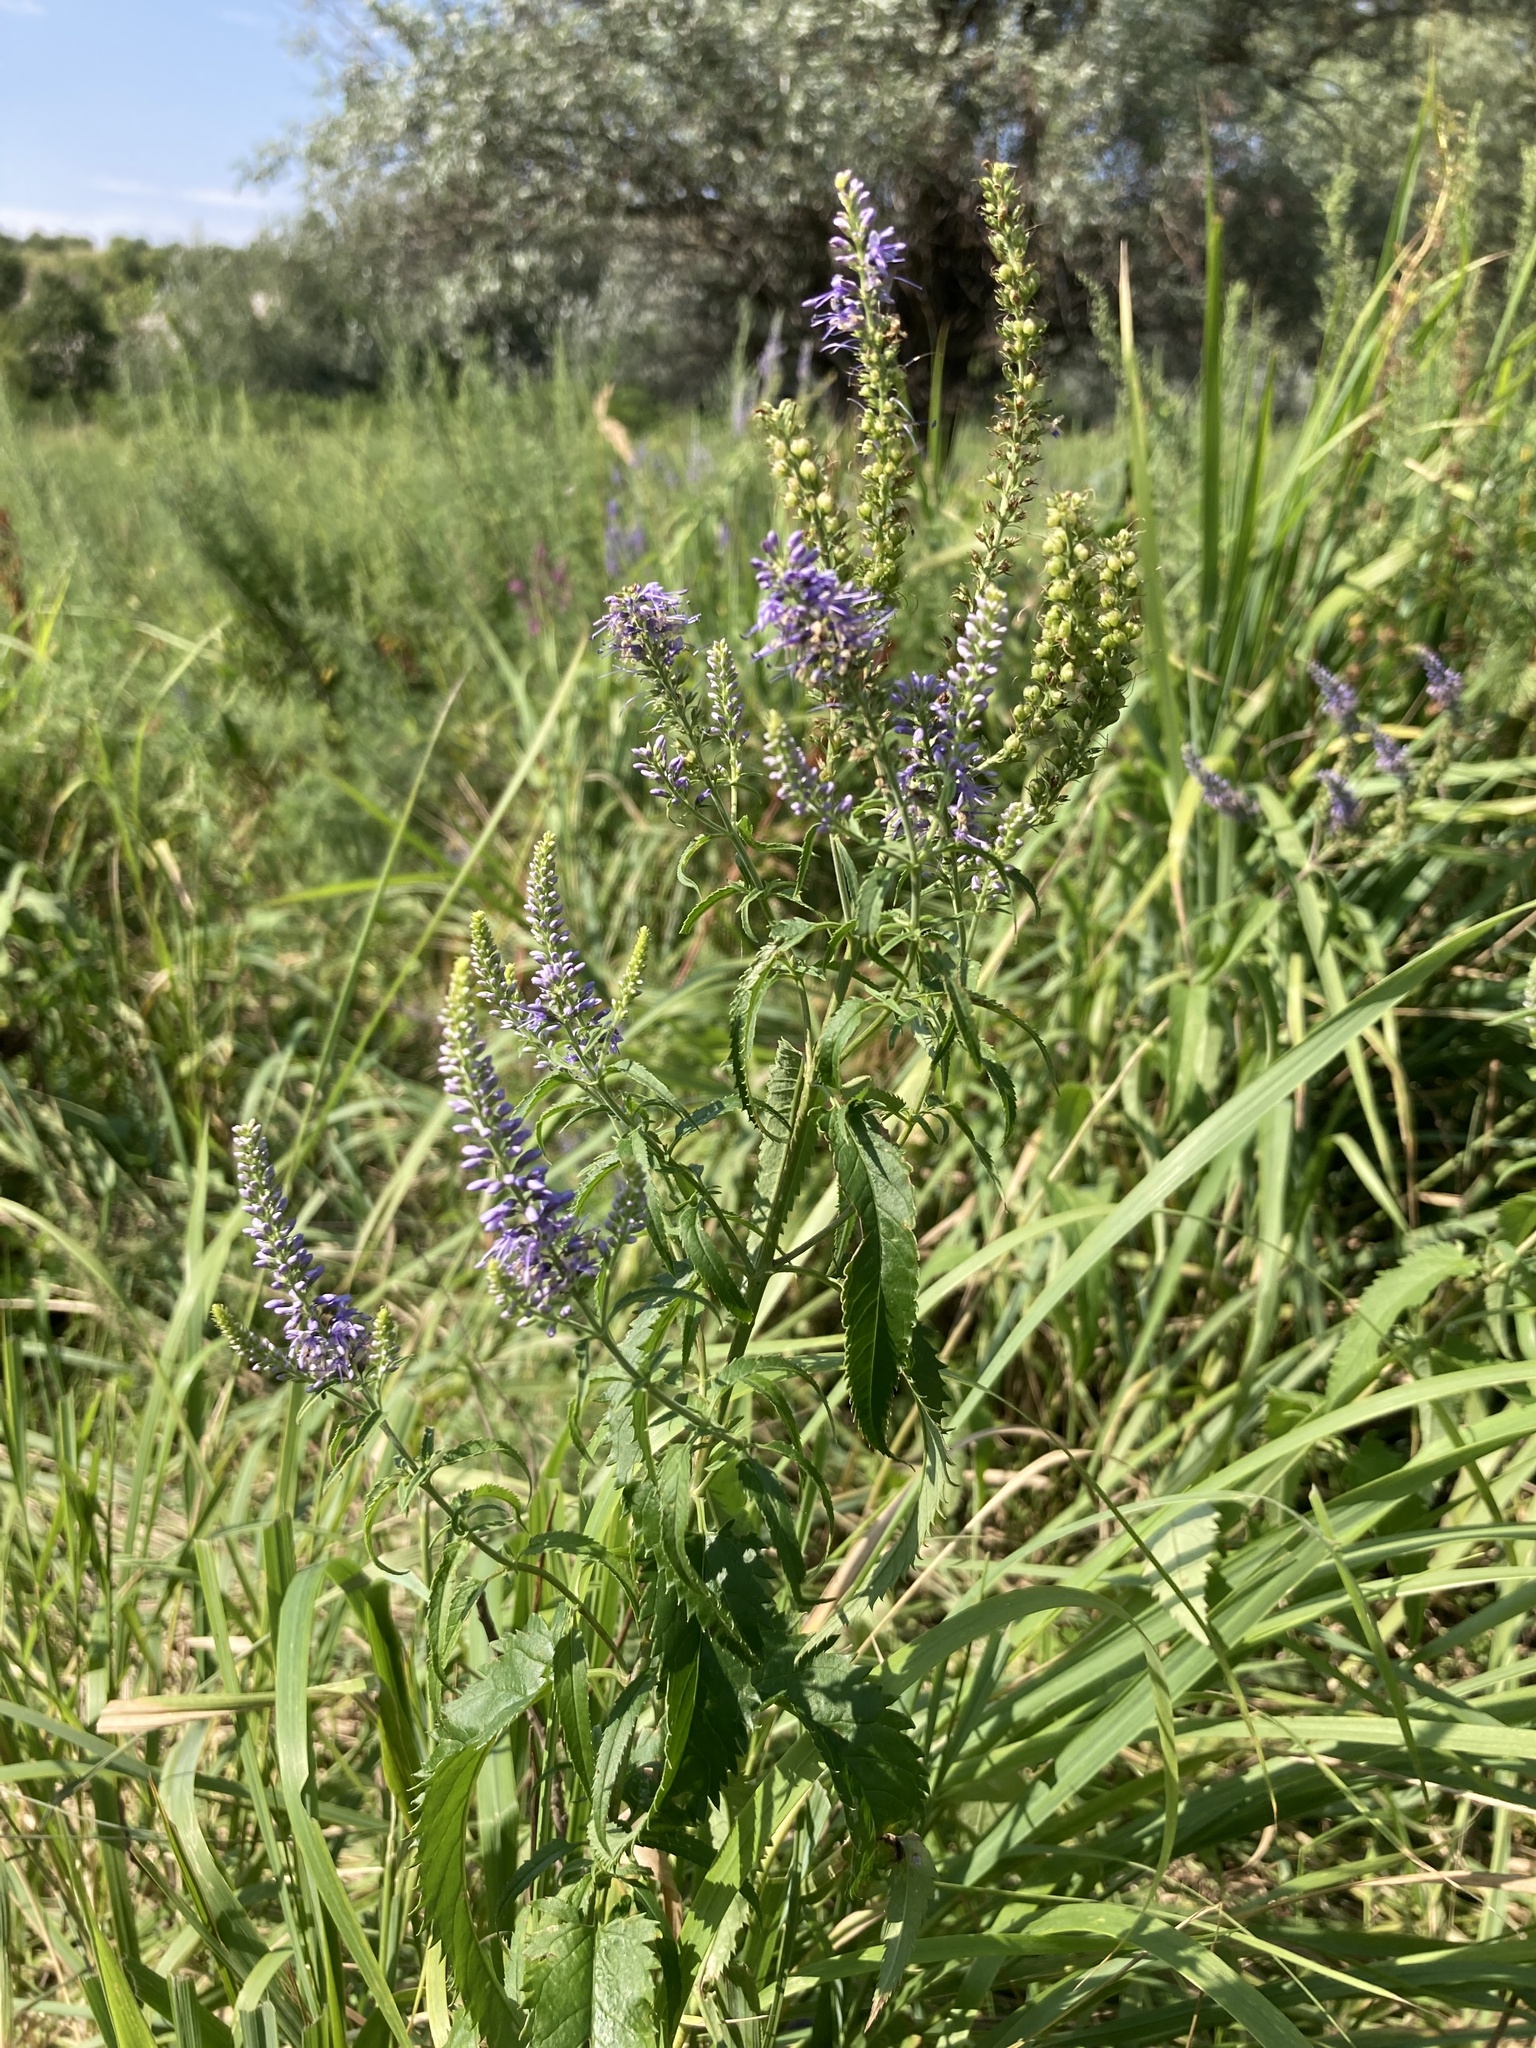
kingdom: Plantae
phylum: Tracheophyta
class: Magnoliopsida
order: Lamiales
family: Plantaginaceae
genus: Veronica
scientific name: Veronica longifolia
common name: Garden speedwell
